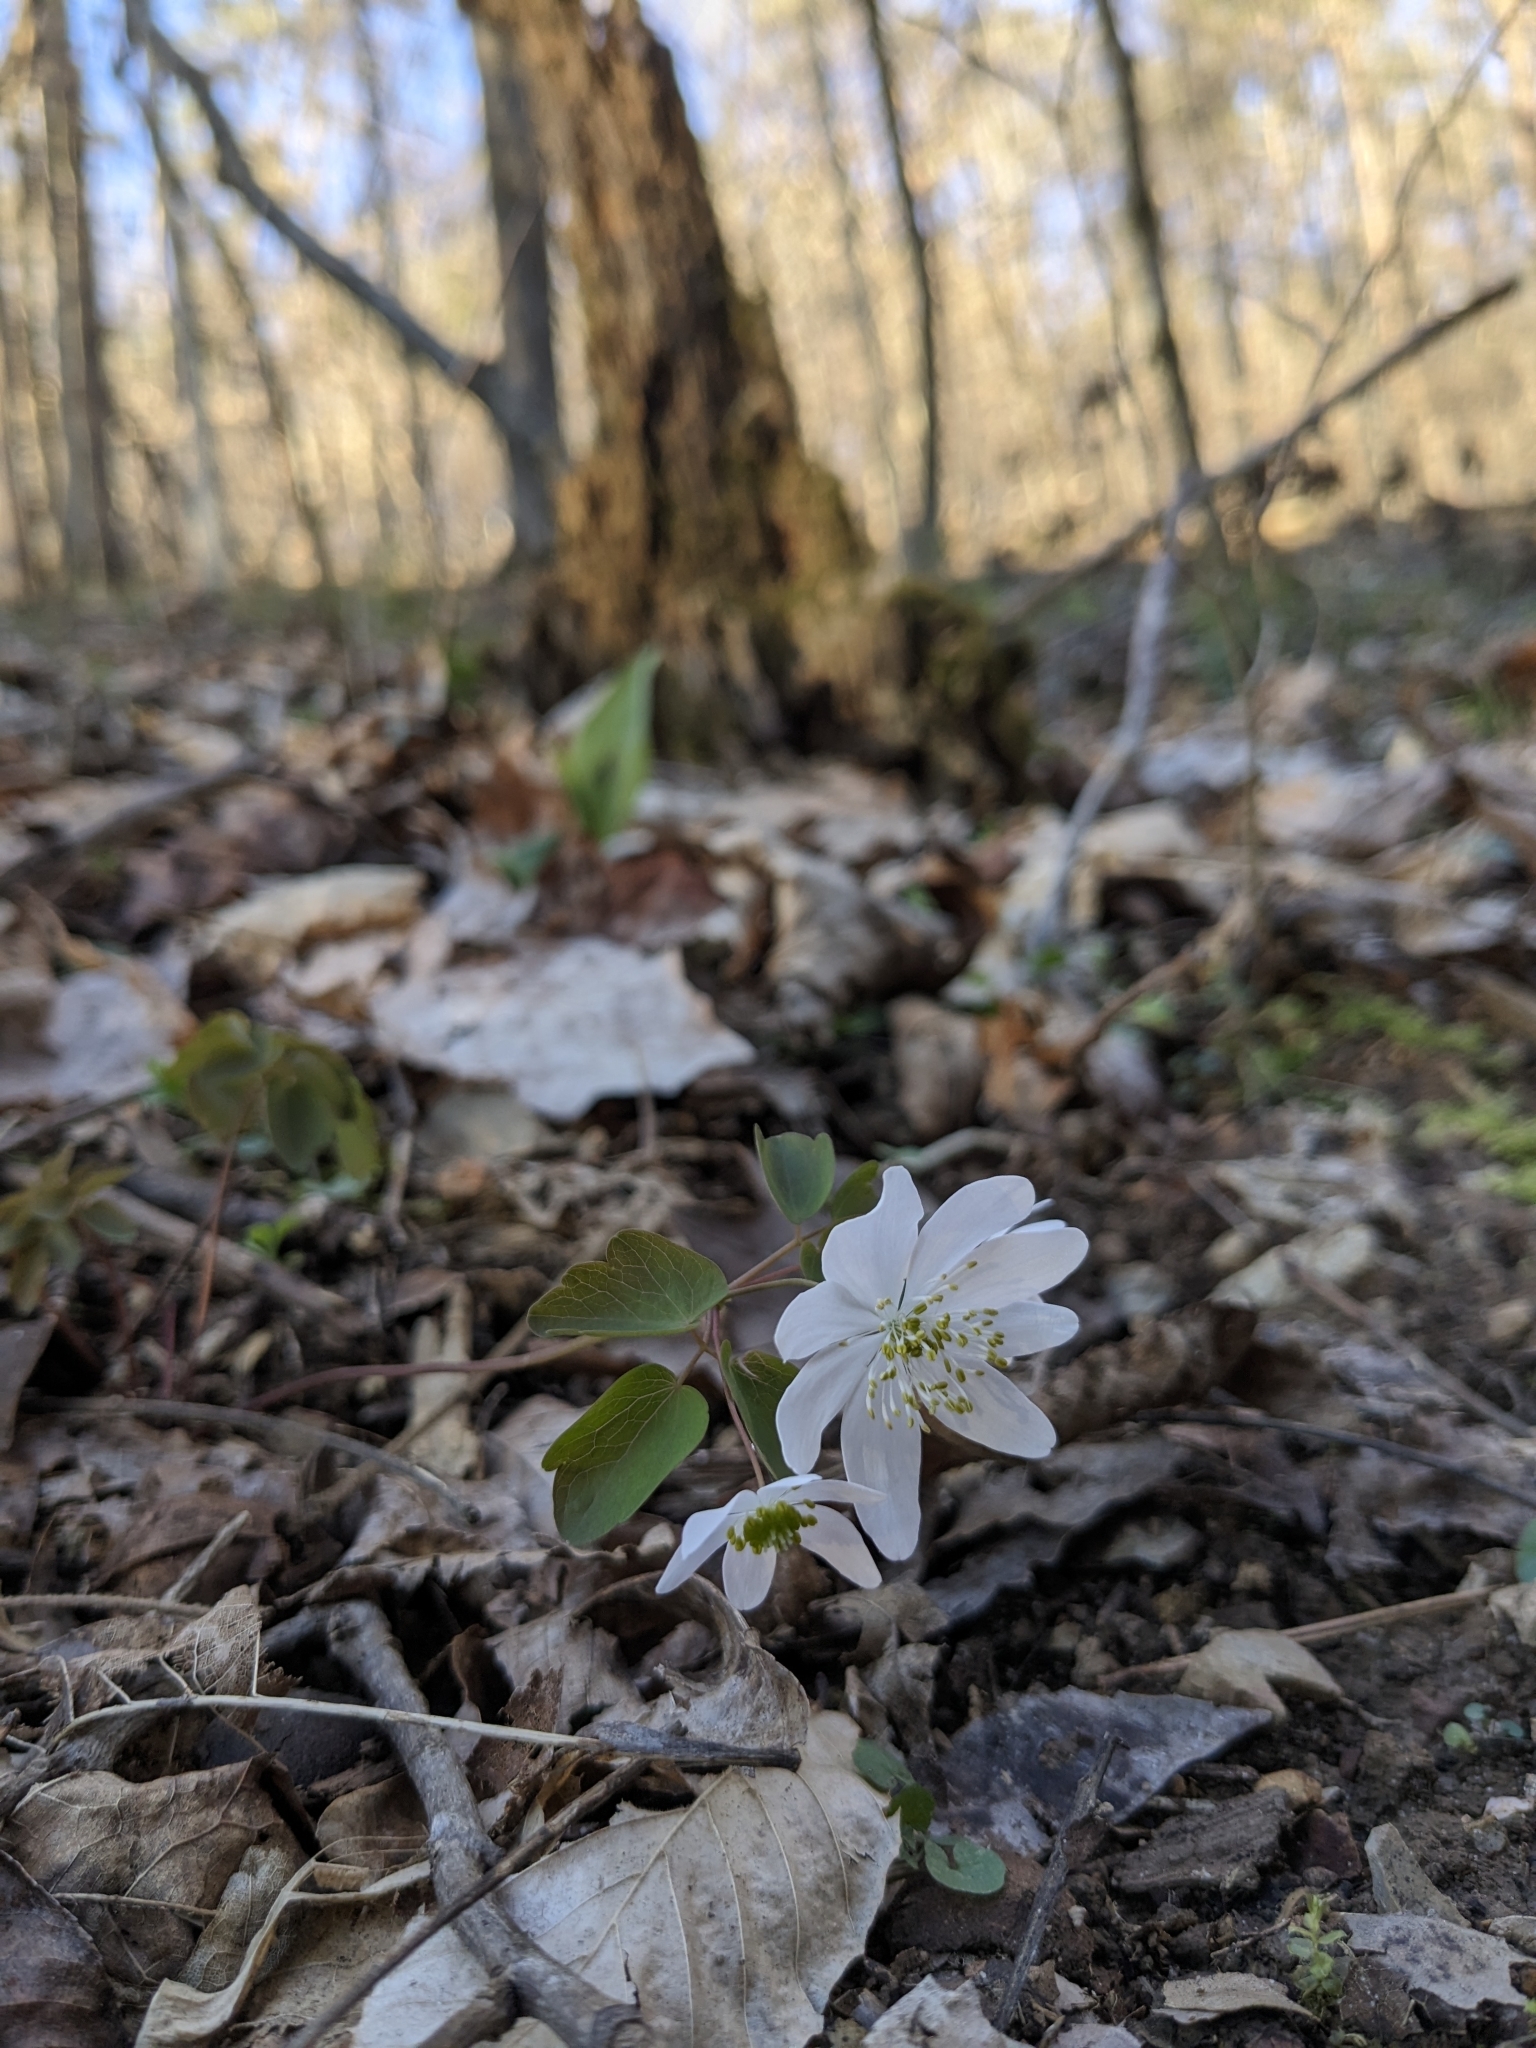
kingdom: Plantae
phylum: Tracheophyta
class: Magnoliopsida
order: Ranunculales
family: Ranunculaceae
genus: Thalictrum
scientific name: Thalictrum thalictroides
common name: Rue-anemone
